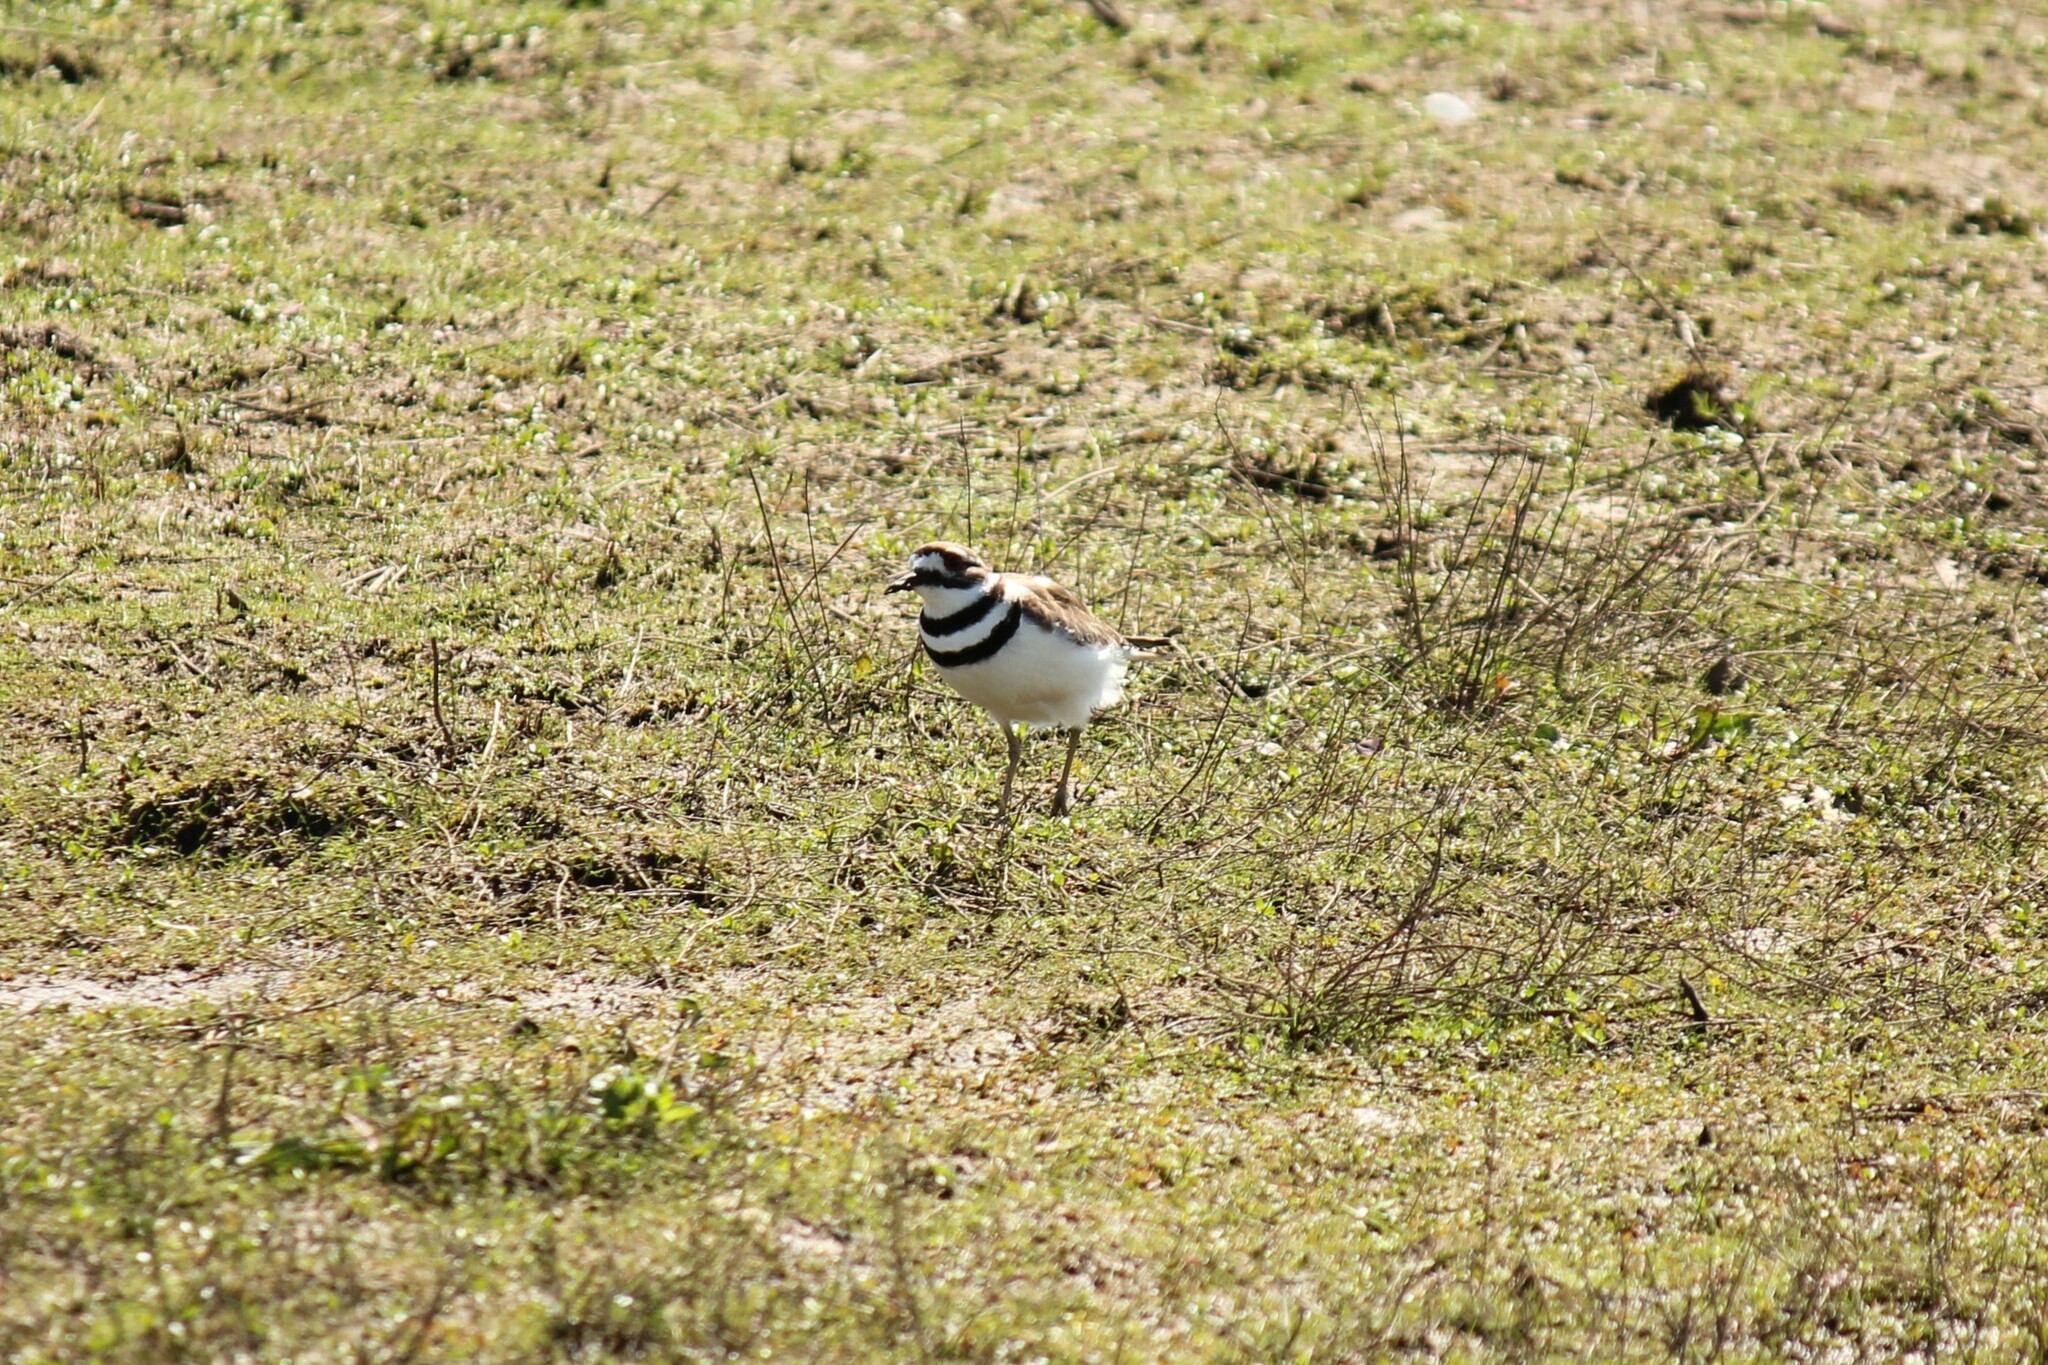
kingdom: Animalia
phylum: Chordata
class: Aves
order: Charadriiformes
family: Charadriidae
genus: Charadrius
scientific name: Charadrius vociferus
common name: Killdeer
